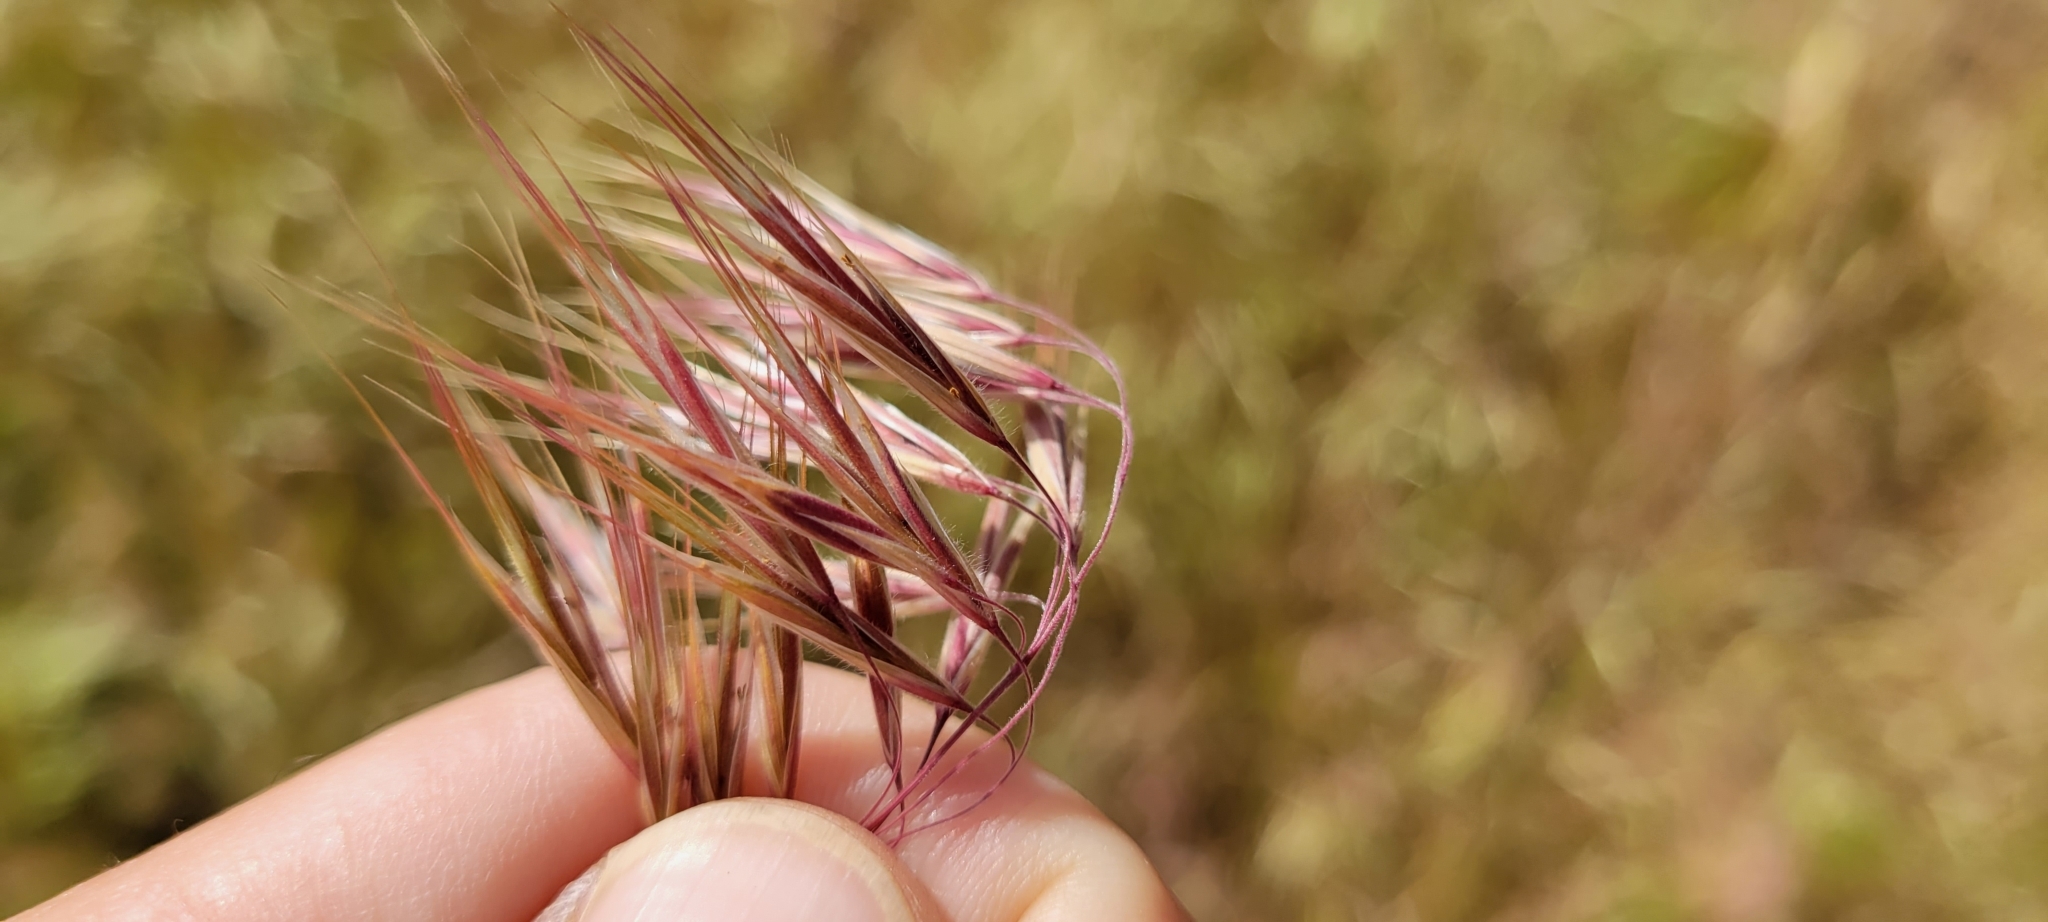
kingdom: Plantae
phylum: Tracheophyta
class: Liliopsida
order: Poales
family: Poaceae
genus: Bromus
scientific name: Bromus tectorum
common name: Cheatgrass
